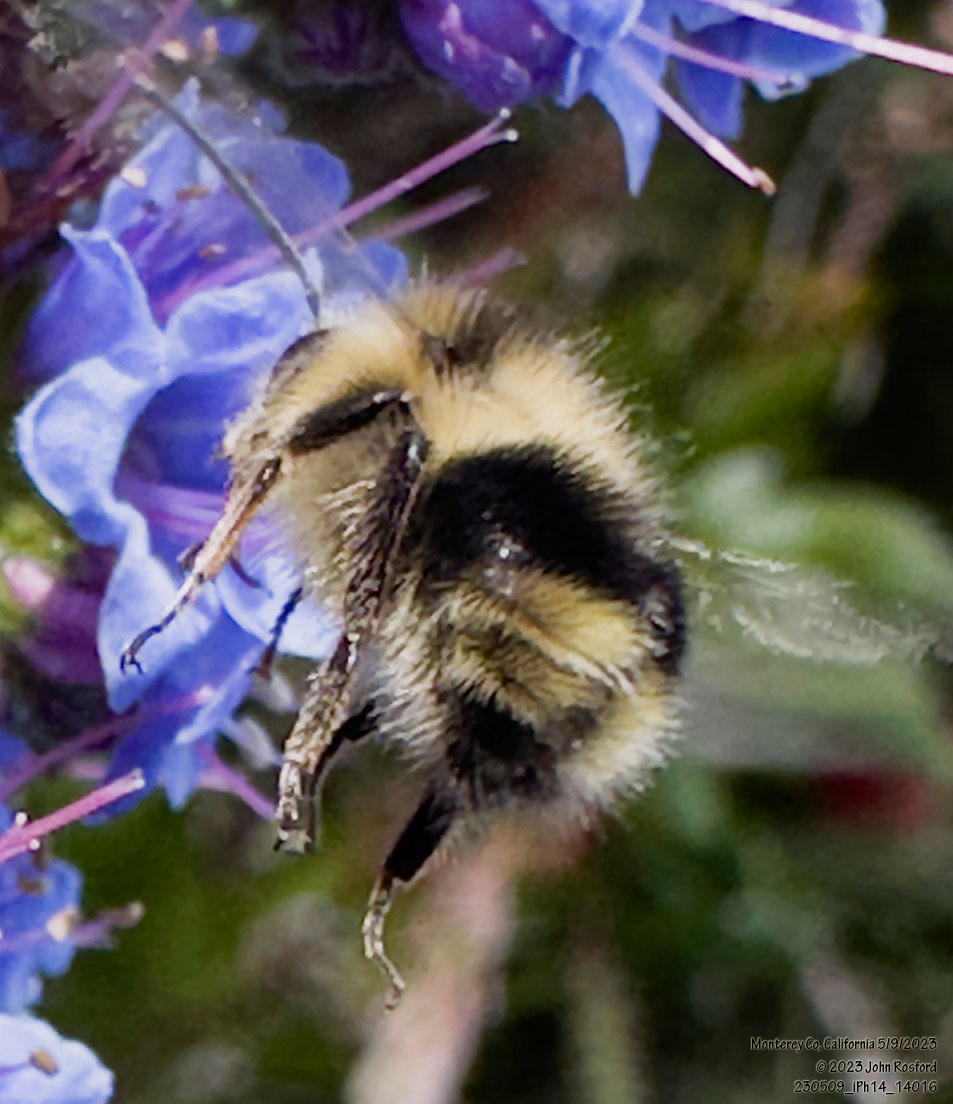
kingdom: Animalia
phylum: Arthropoda
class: Insecta
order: Hymenoptera
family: Apidae
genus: Bombus
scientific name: Bombus melanopygus
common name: Black tail bumble bee
